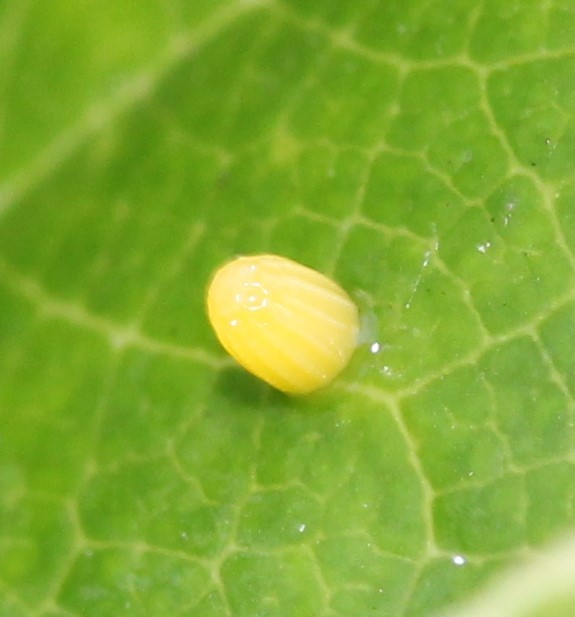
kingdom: Animalia
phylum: Arthropoda
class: Insecta
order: Lepidoptera
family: Nymphalidae
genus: Dione
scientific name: Dione vanillae
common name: Gulf fritillary
